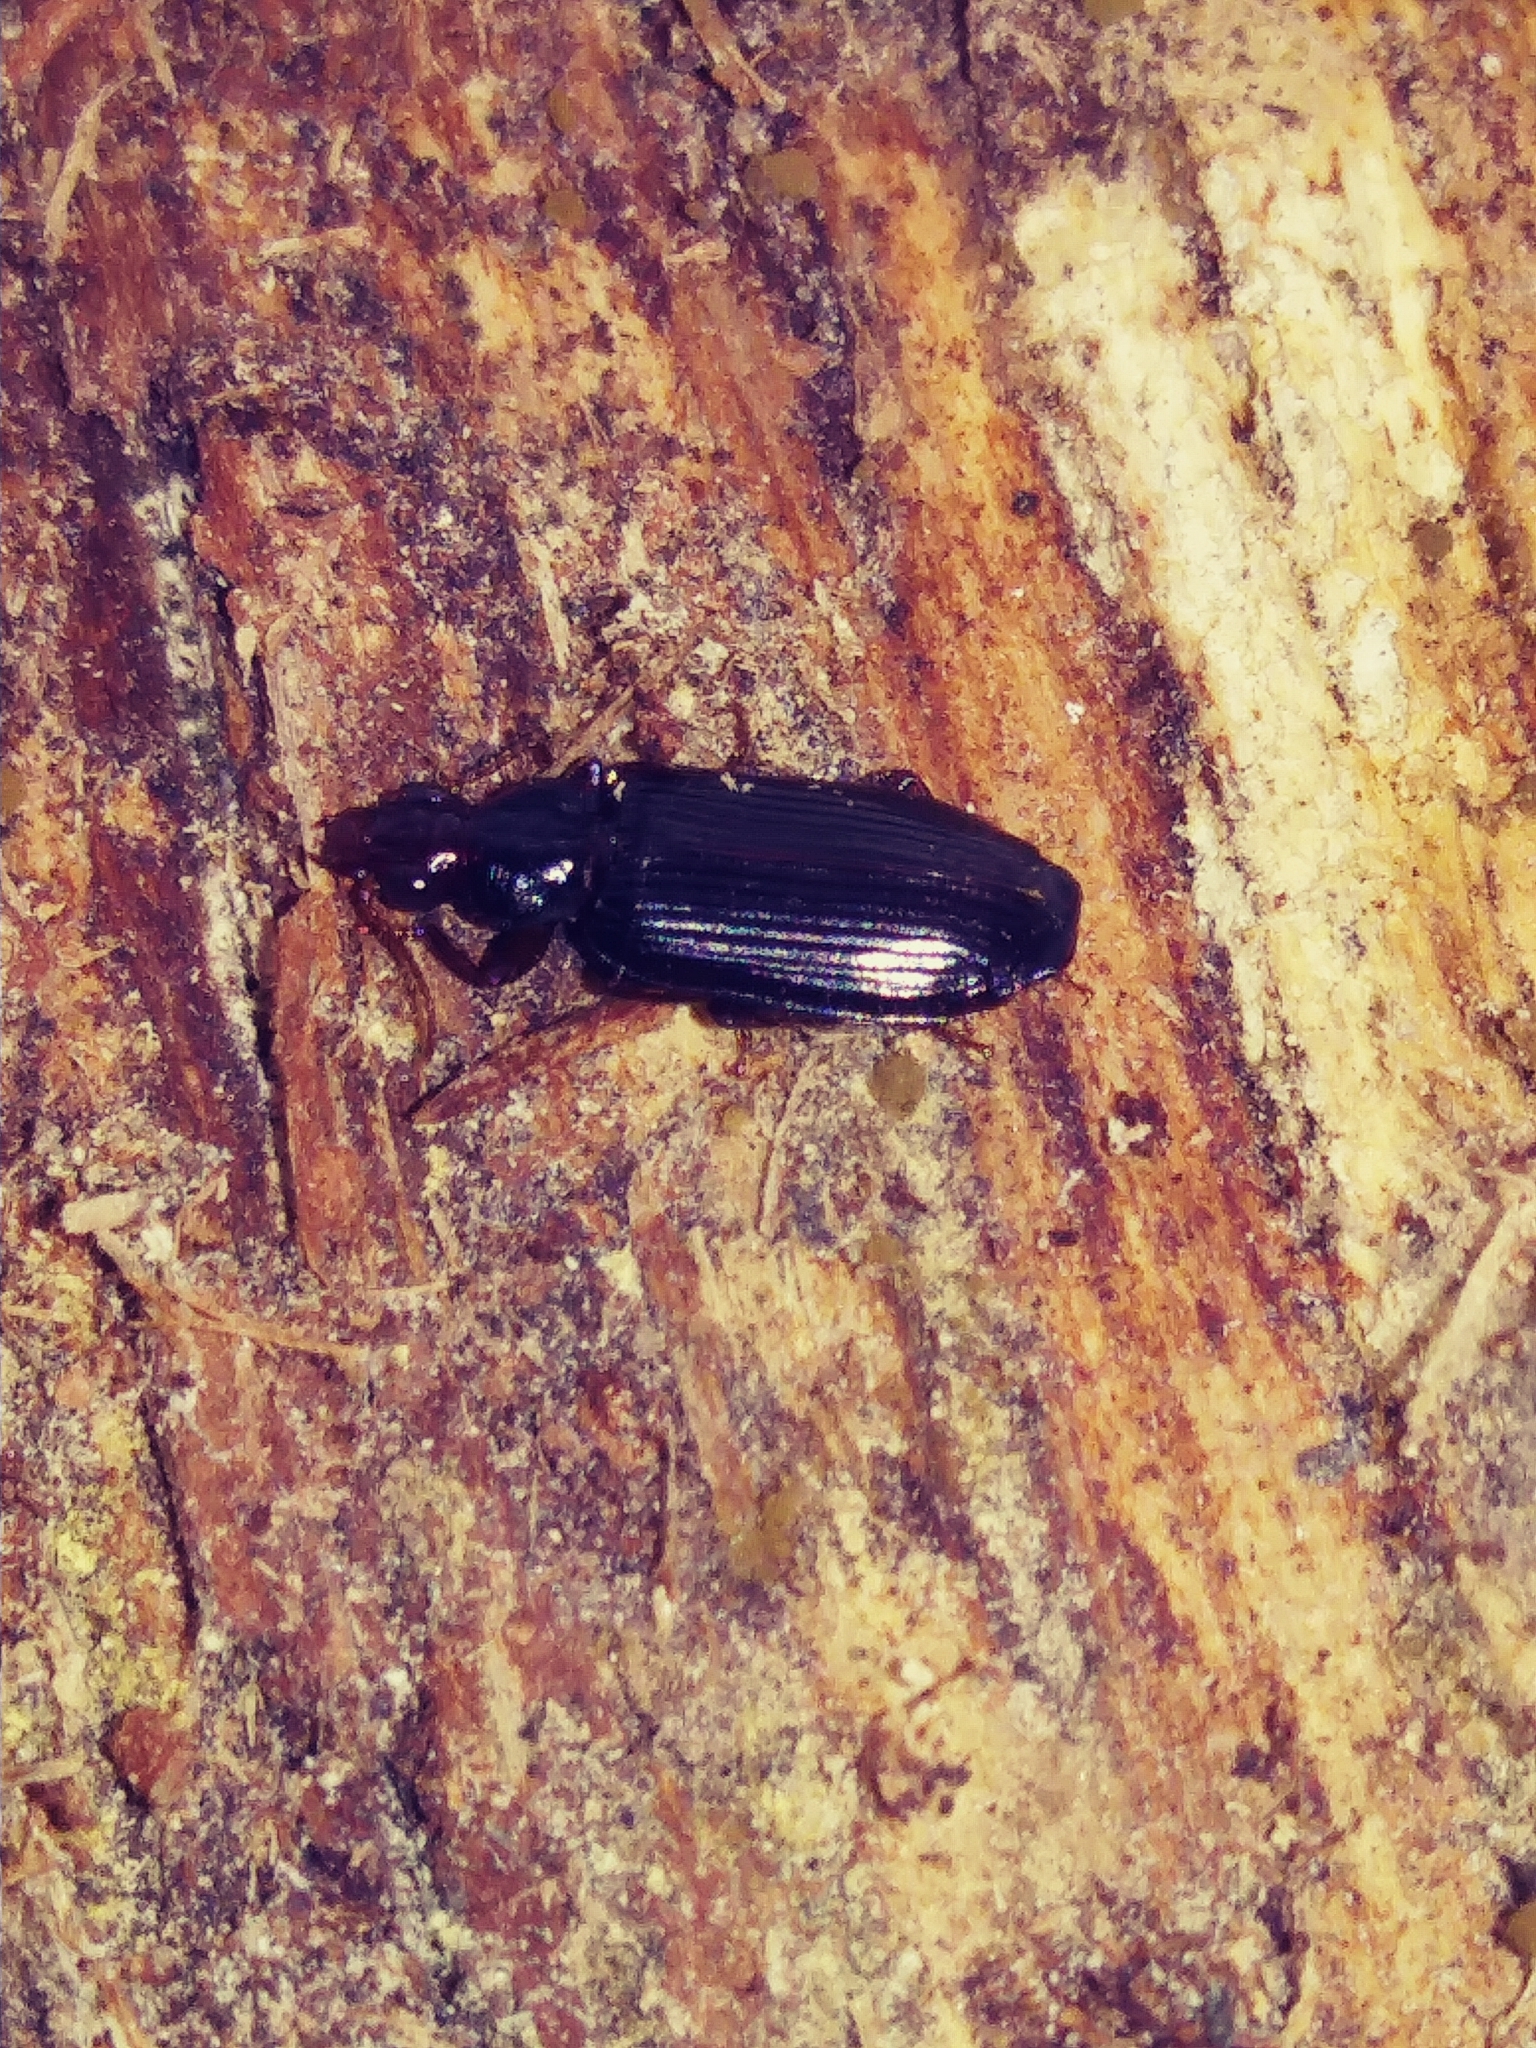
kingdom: Animalia
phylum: Arthropoda
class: Insecta
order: Lepidoptera
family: Geometridae
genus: Patalene
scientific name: Patalene olyzonaria
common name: Juniper geometer moth
